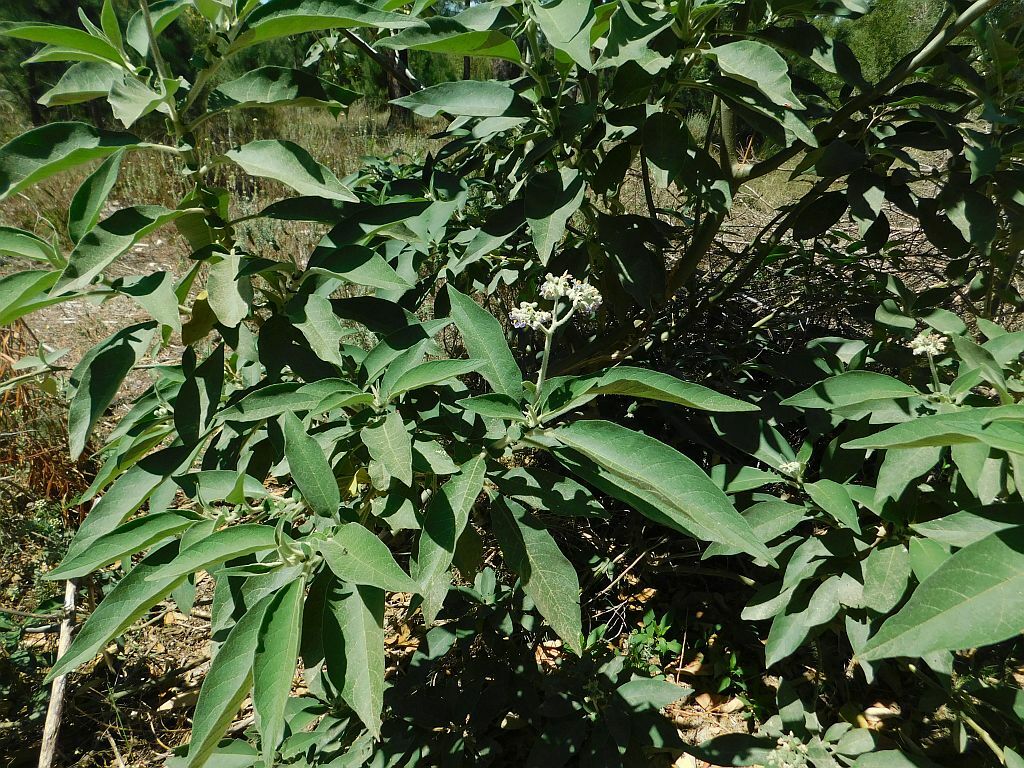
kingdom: Plantae
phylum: Tracheophyta
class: Magnoliopsida
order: Solanales
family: Solanaceae
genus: Solanum
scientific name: Solanum mauritianum
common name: Earleaf nightshade
